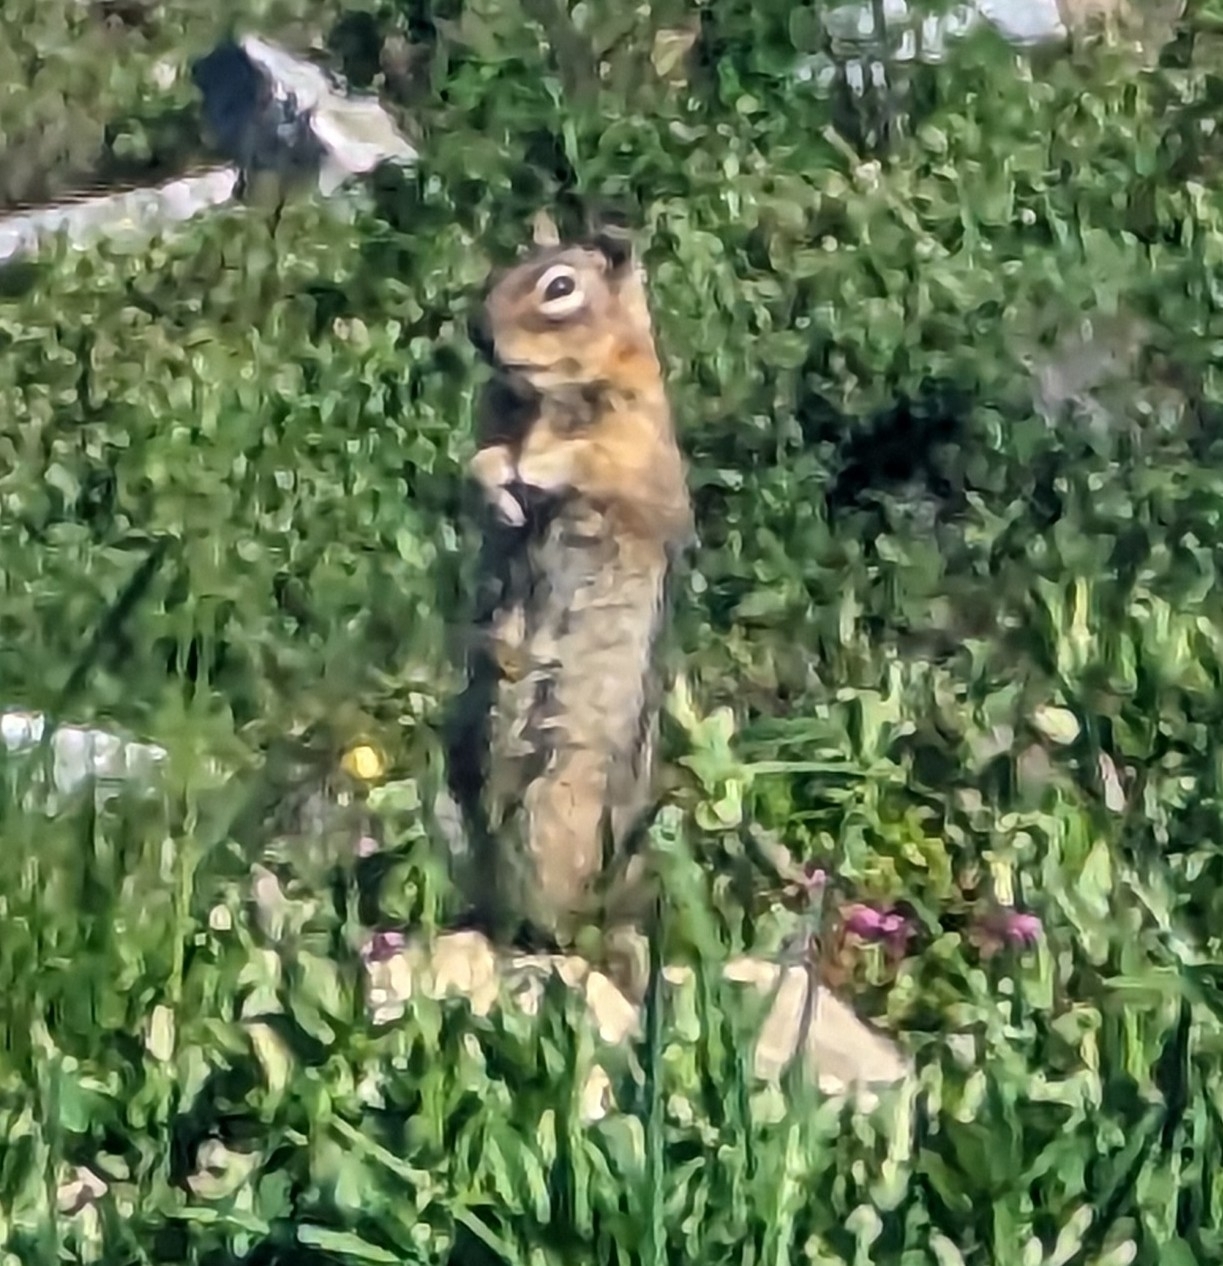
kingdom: Animalia
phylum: Chordata
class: Mammalia
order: Rodentia
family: Sciuridae
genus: Callospermophilus
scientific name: Callospermophilus saturatus
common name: Cascade golden-mantled ground squirrel
